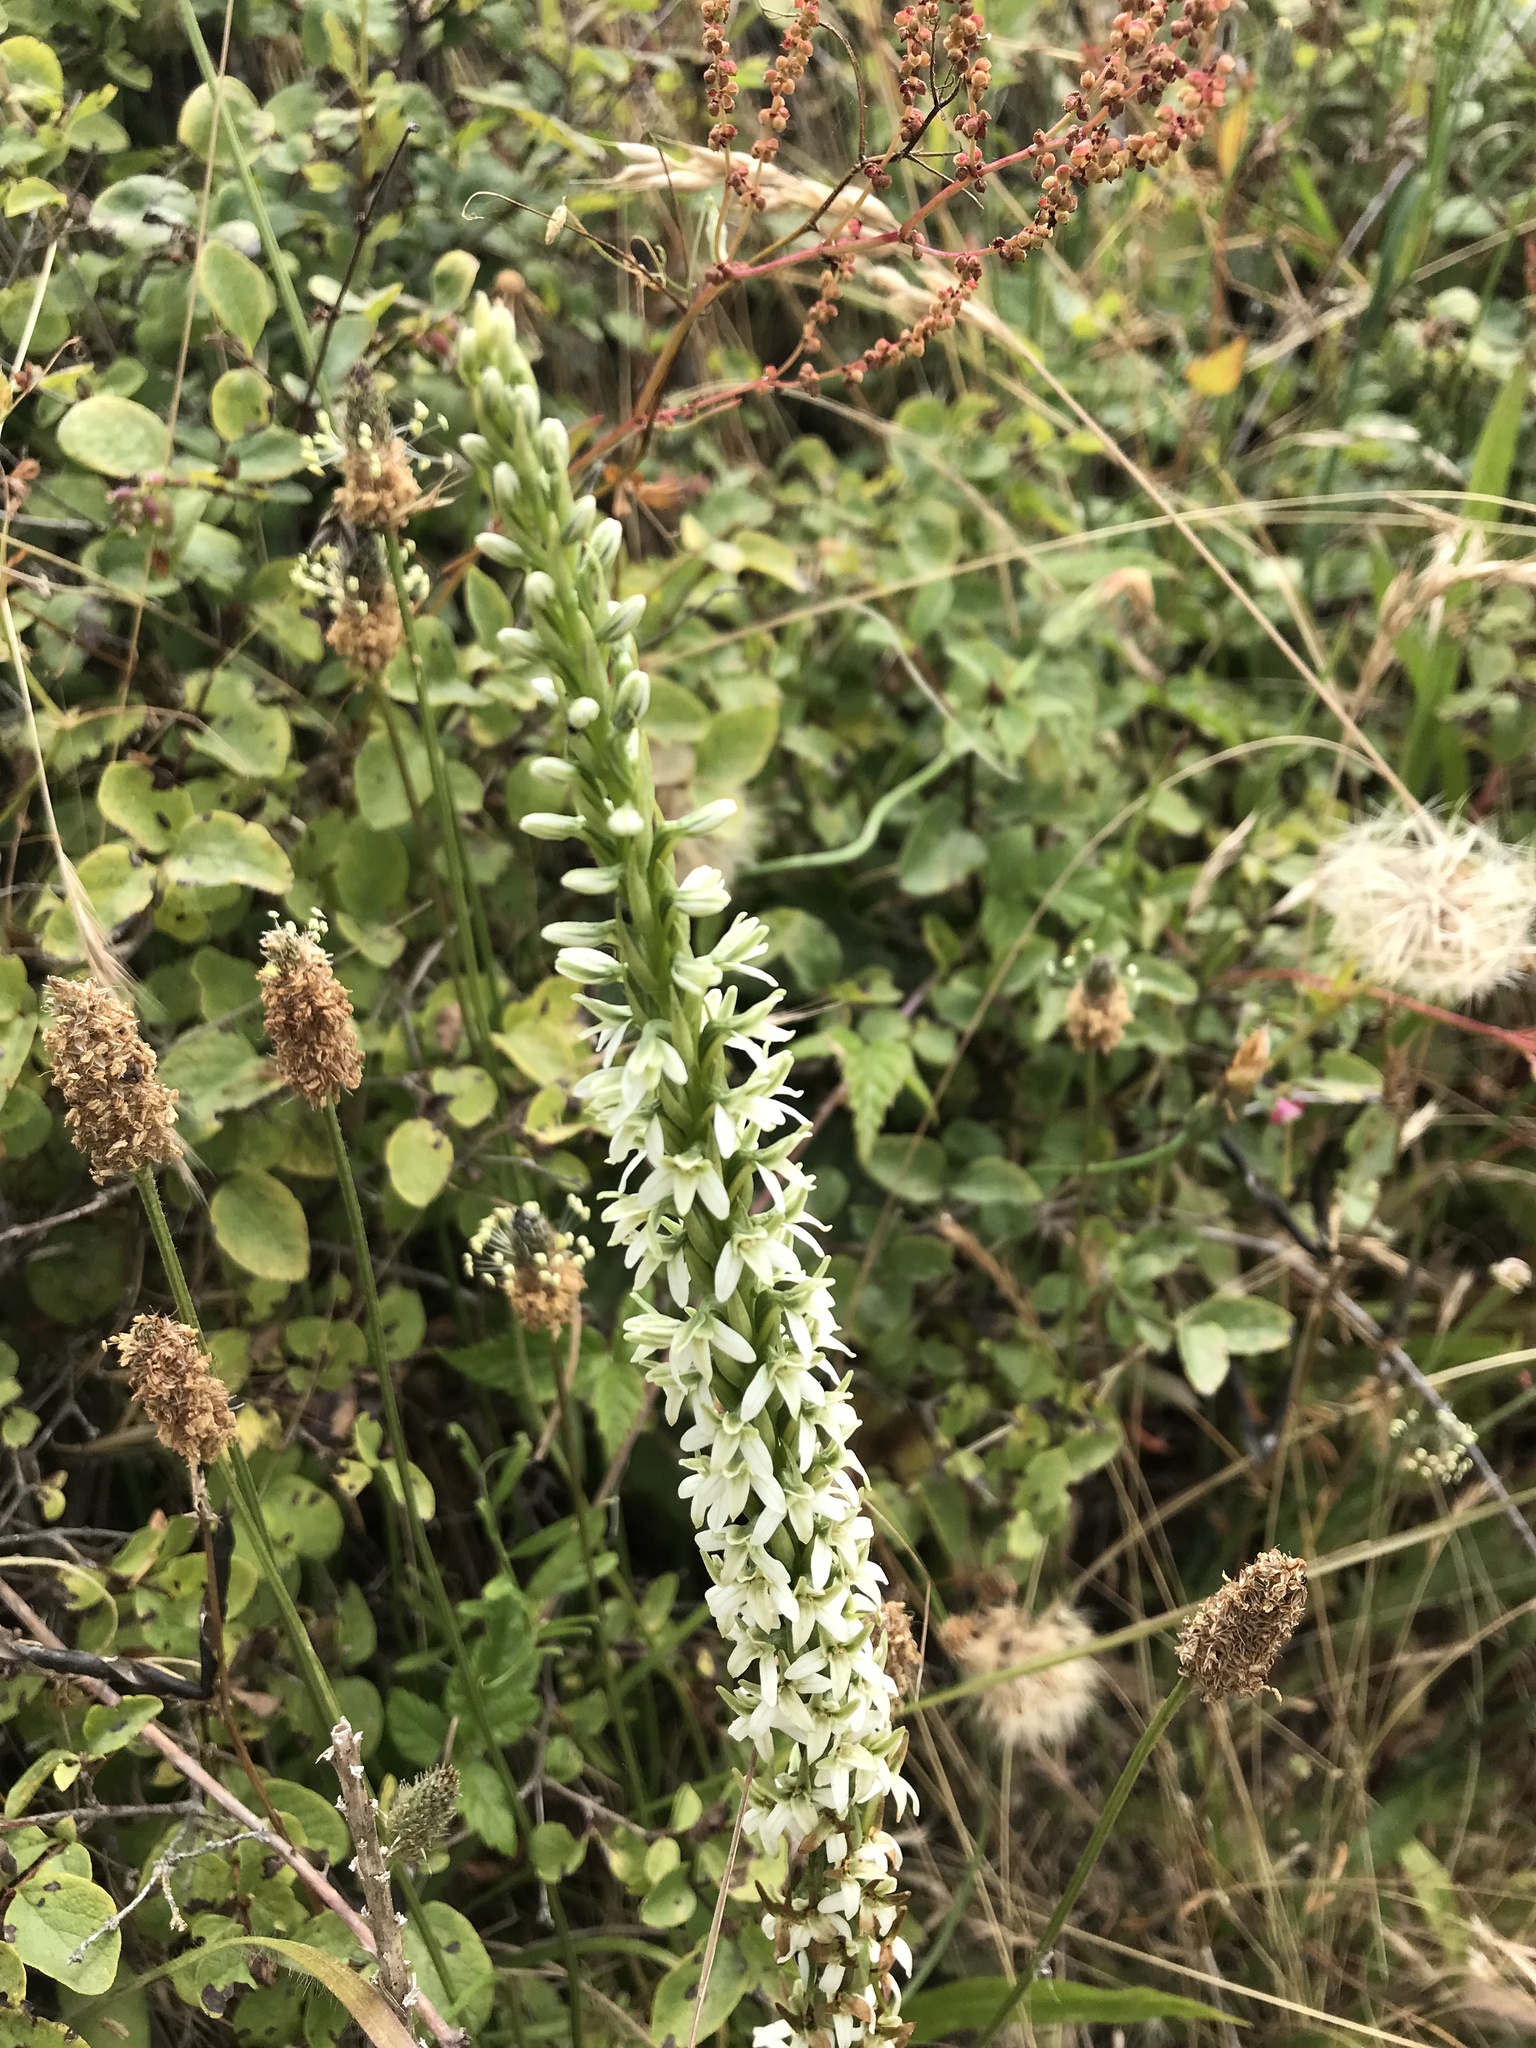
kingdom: Plantae
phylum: Tracheophyta
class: Liliopsida
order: Asparagales
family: Orchidaceae
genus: Platanthera
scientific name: Platanthera elegans
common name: Coast piperia
